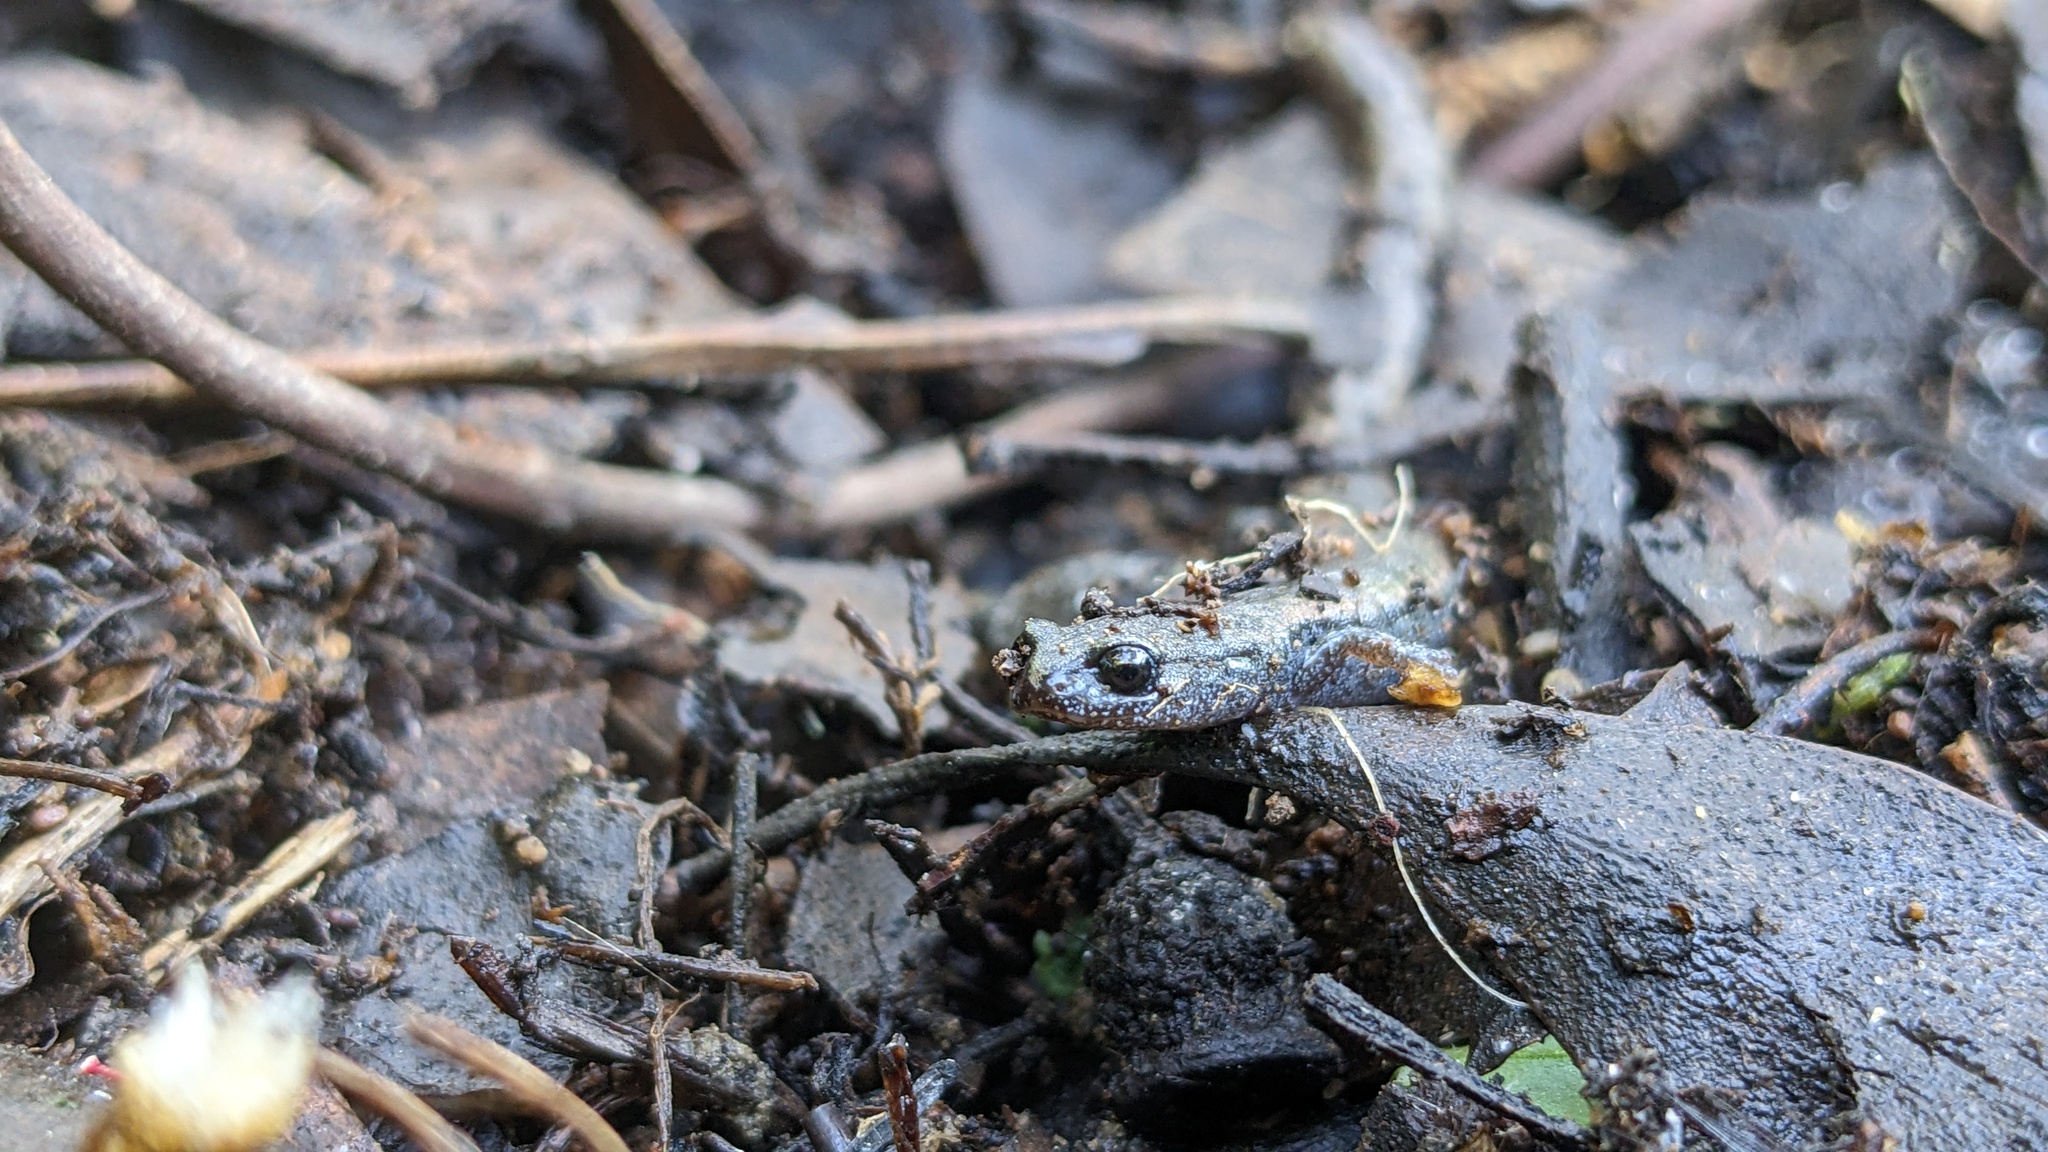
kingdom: Animalia
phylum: Chordata
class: Amphibia
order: Caudata
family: Plethodontidae
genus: Batrachoseps
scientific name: Batrachoseps nigriventris
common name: Black-bellied slender salamander
